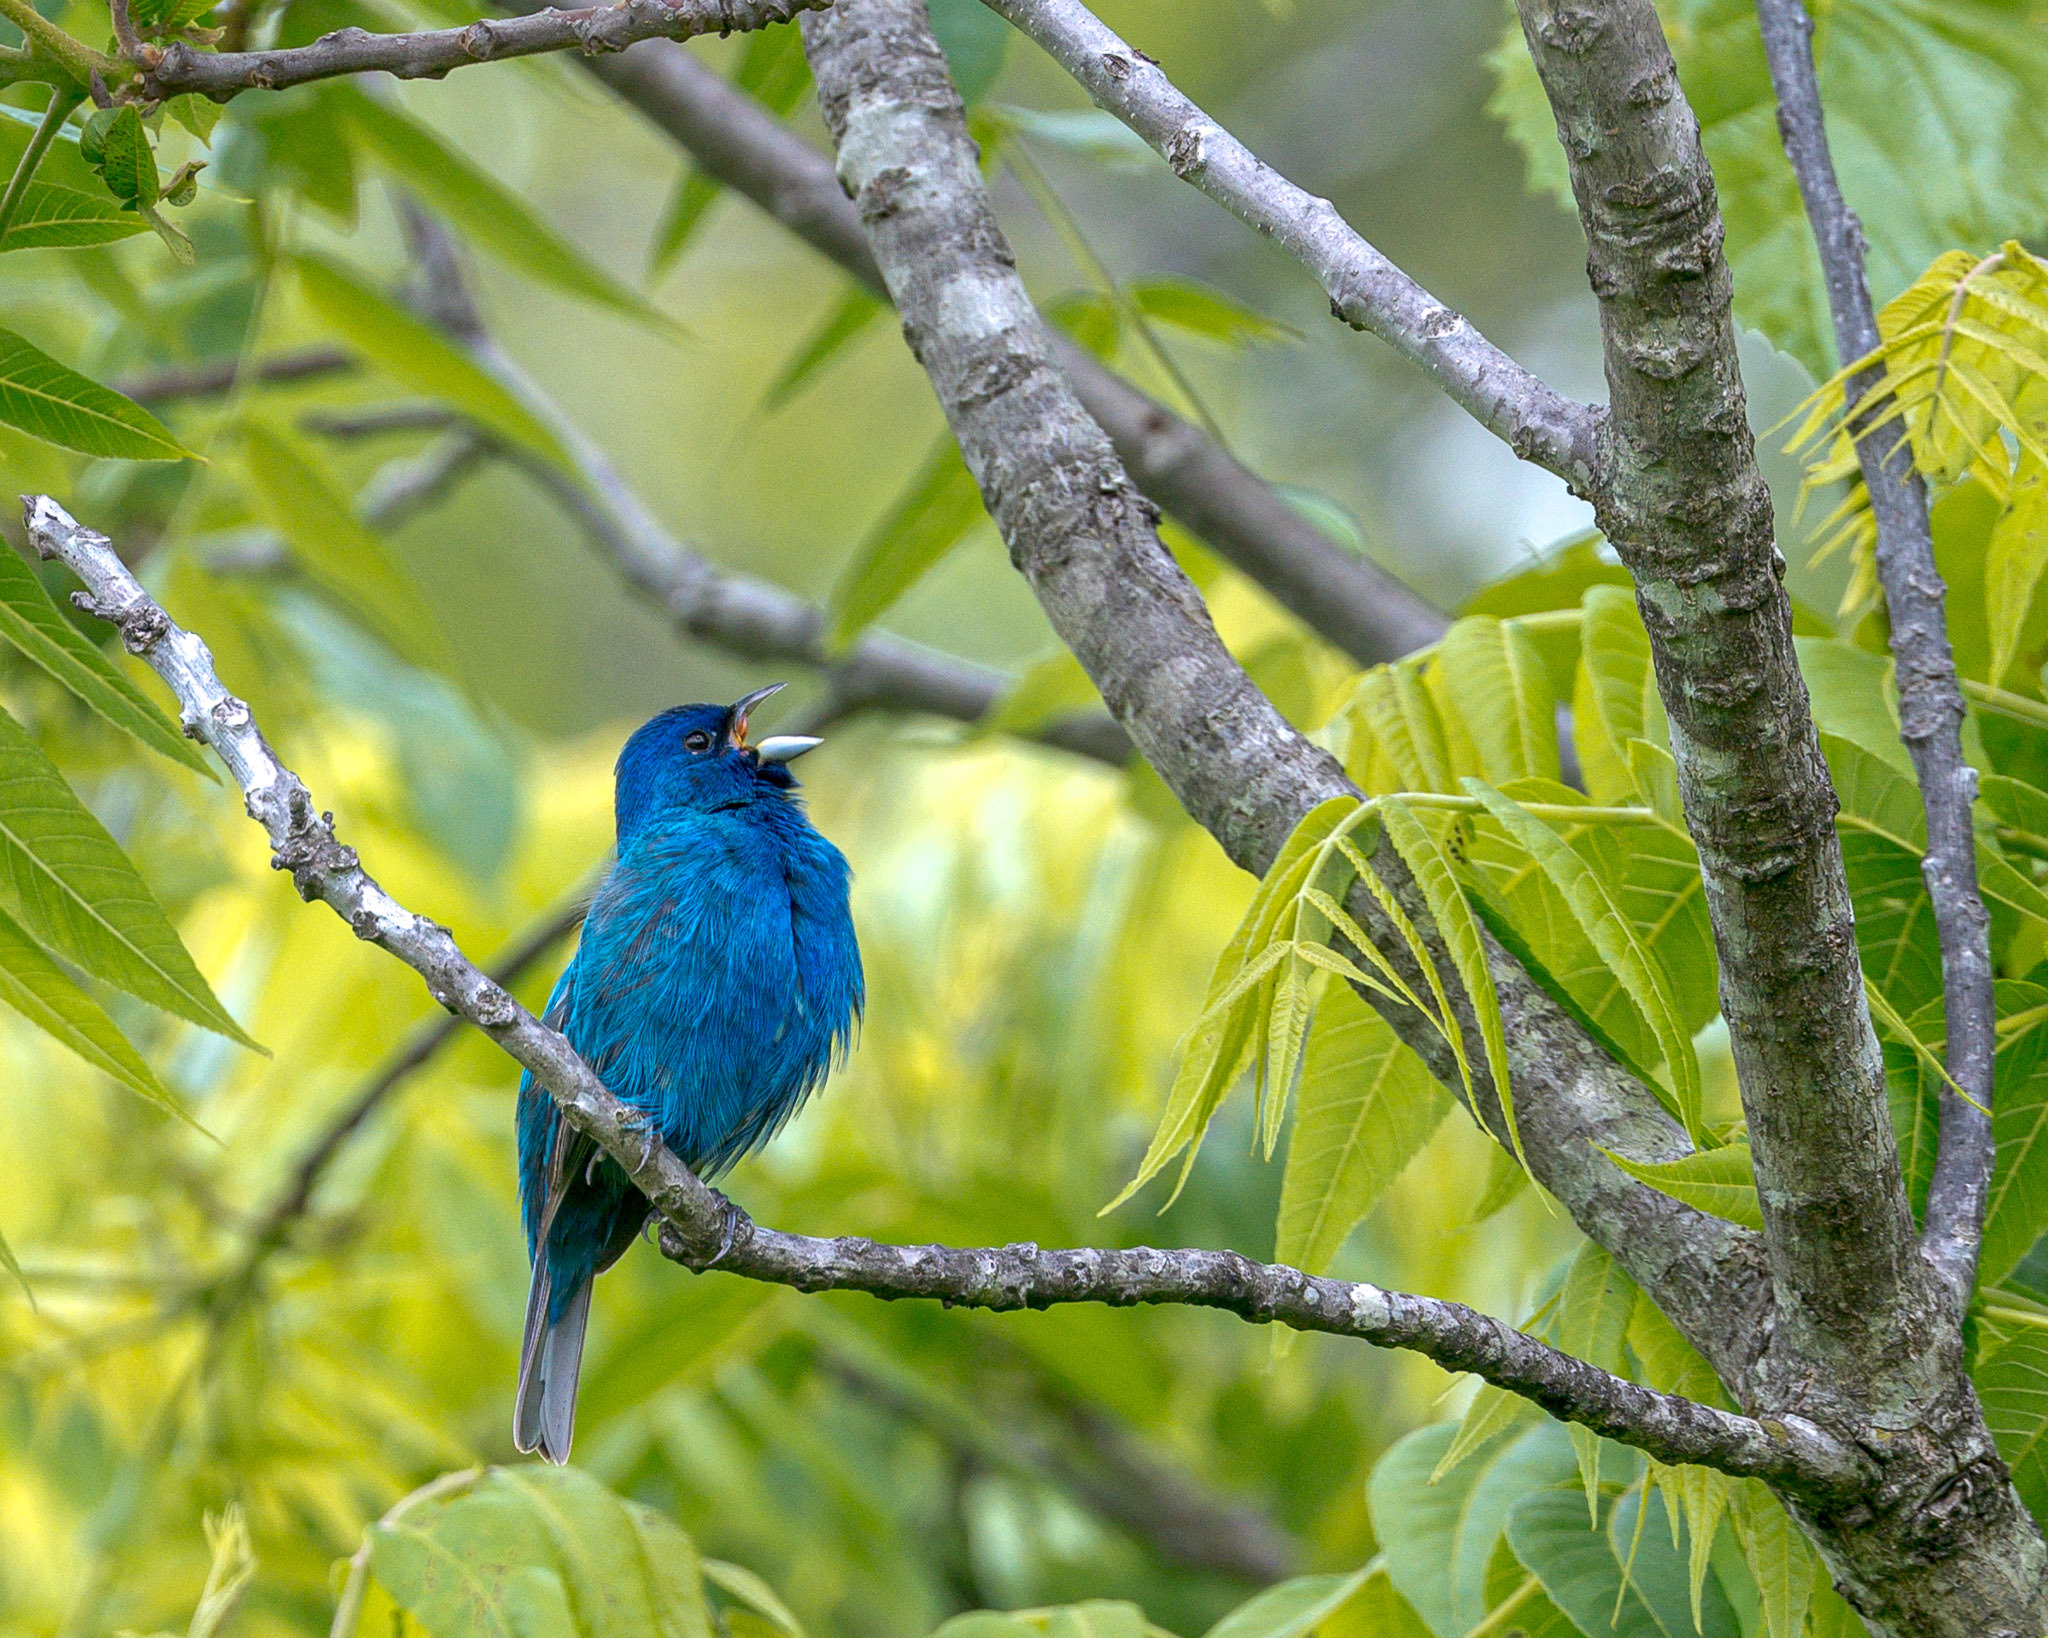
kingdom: Animalia
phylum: Chordata
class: Aves
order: Passeriformes
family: Cardinalidae
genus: Passerina
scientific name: Passerina cyanea
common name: Indigo bunting
